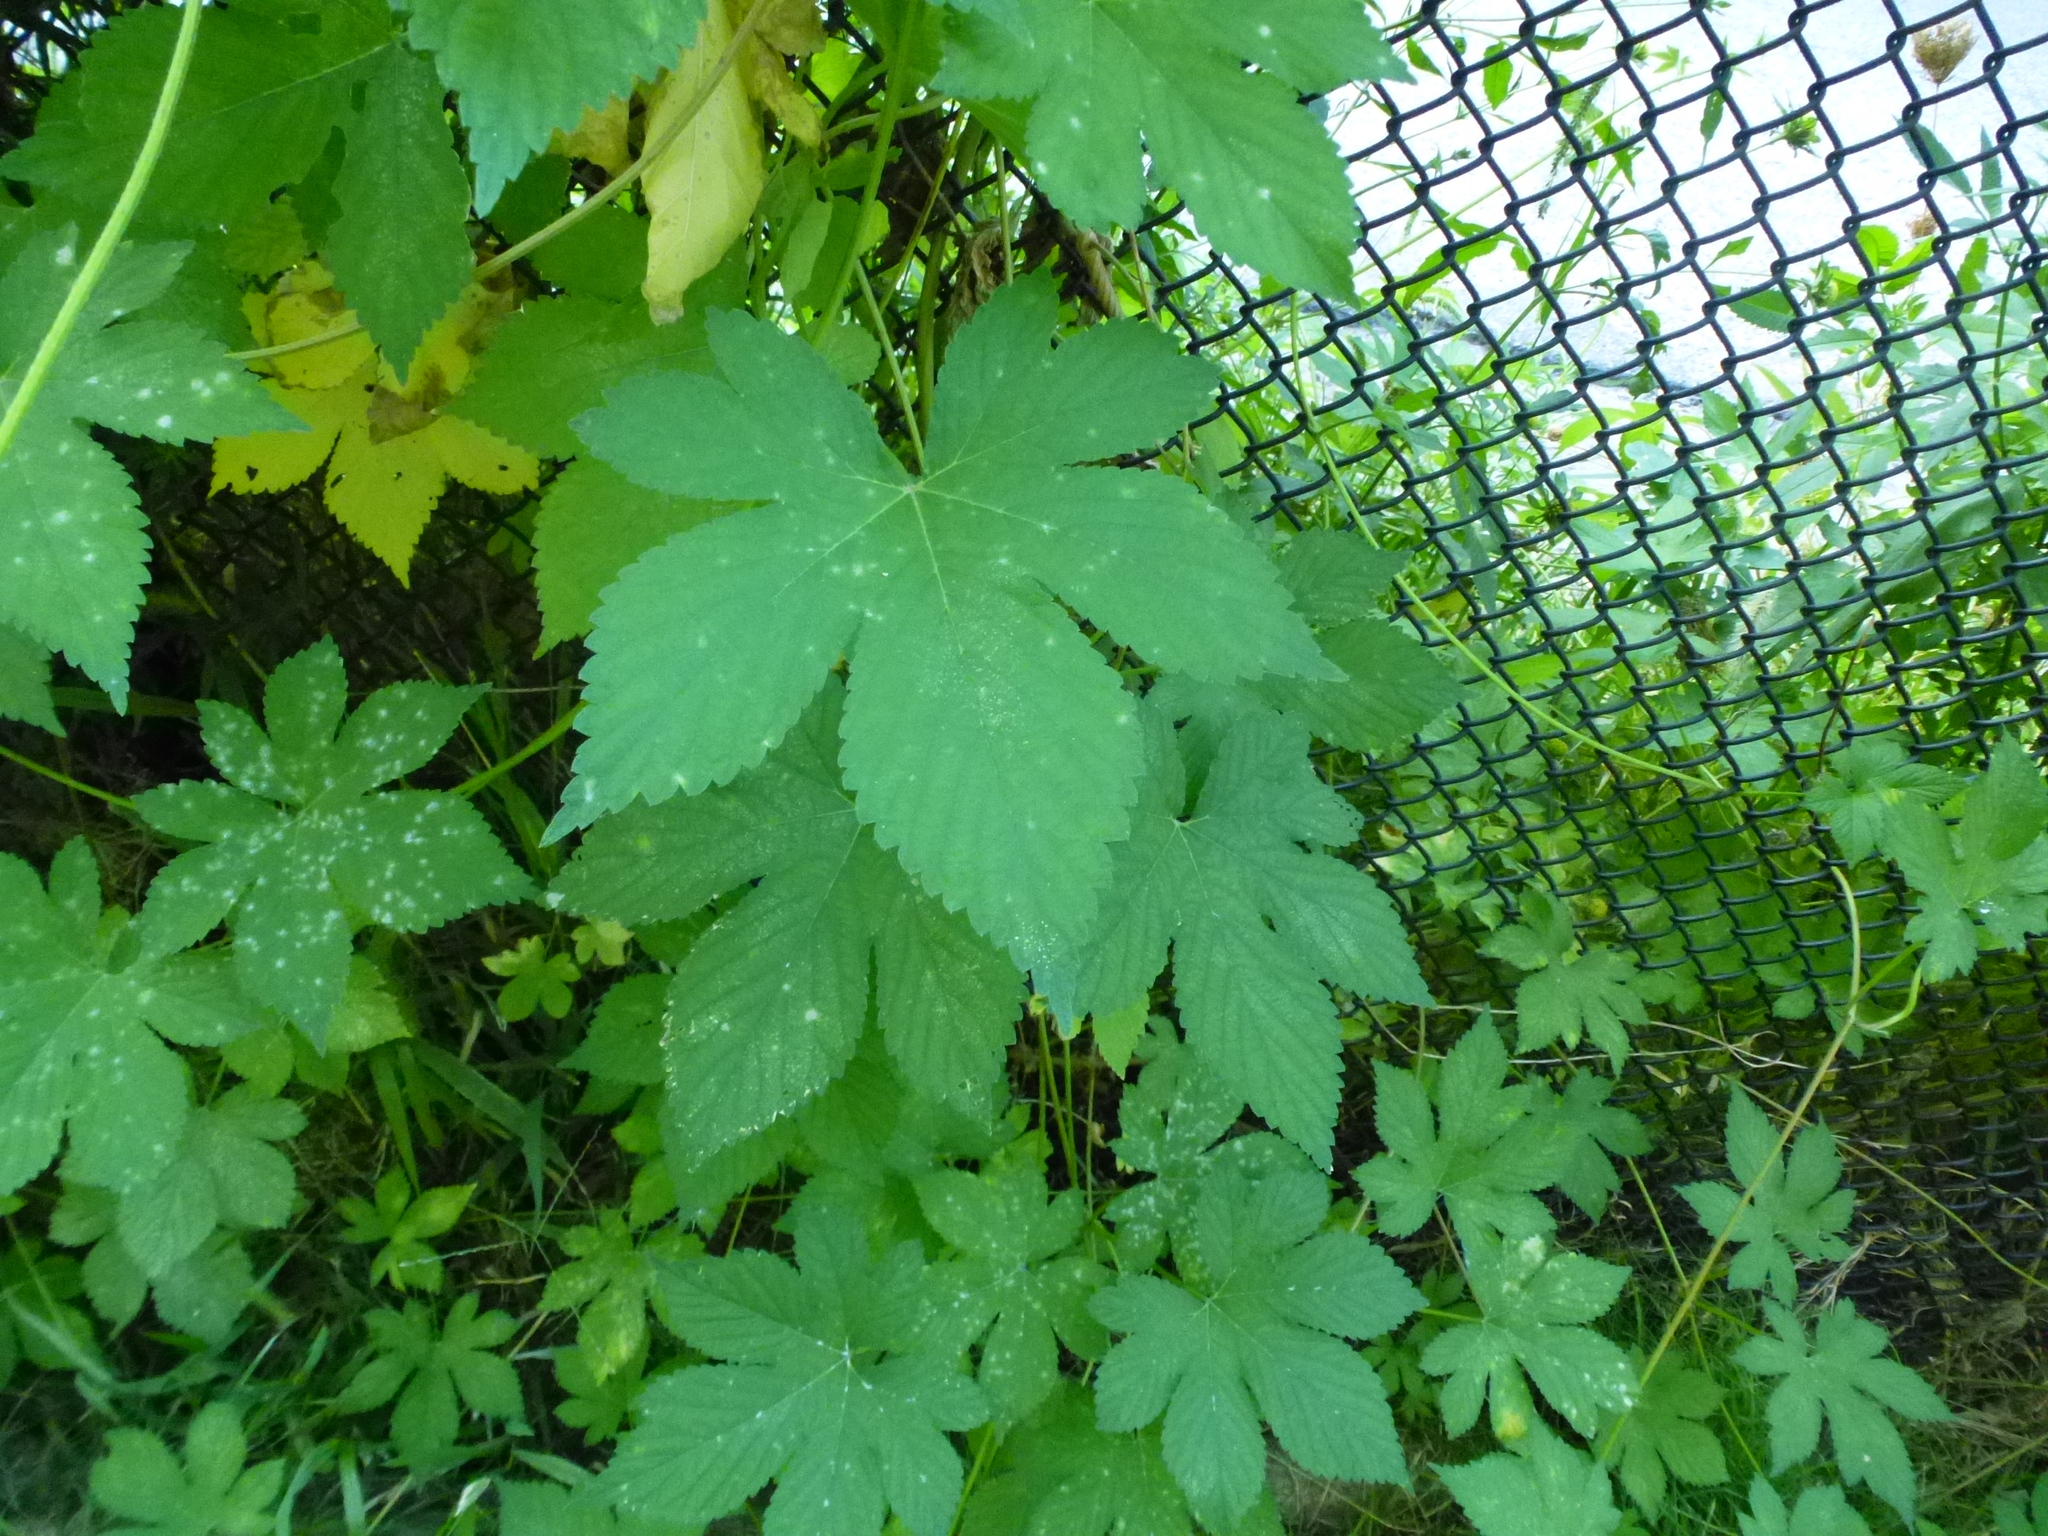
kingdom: Plantae
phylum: Tracheophyta
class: Magnoliopsida
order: Rosales
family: Cannabaceae
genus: Humulus
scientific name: Humulus scandens
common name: Japanese hop
